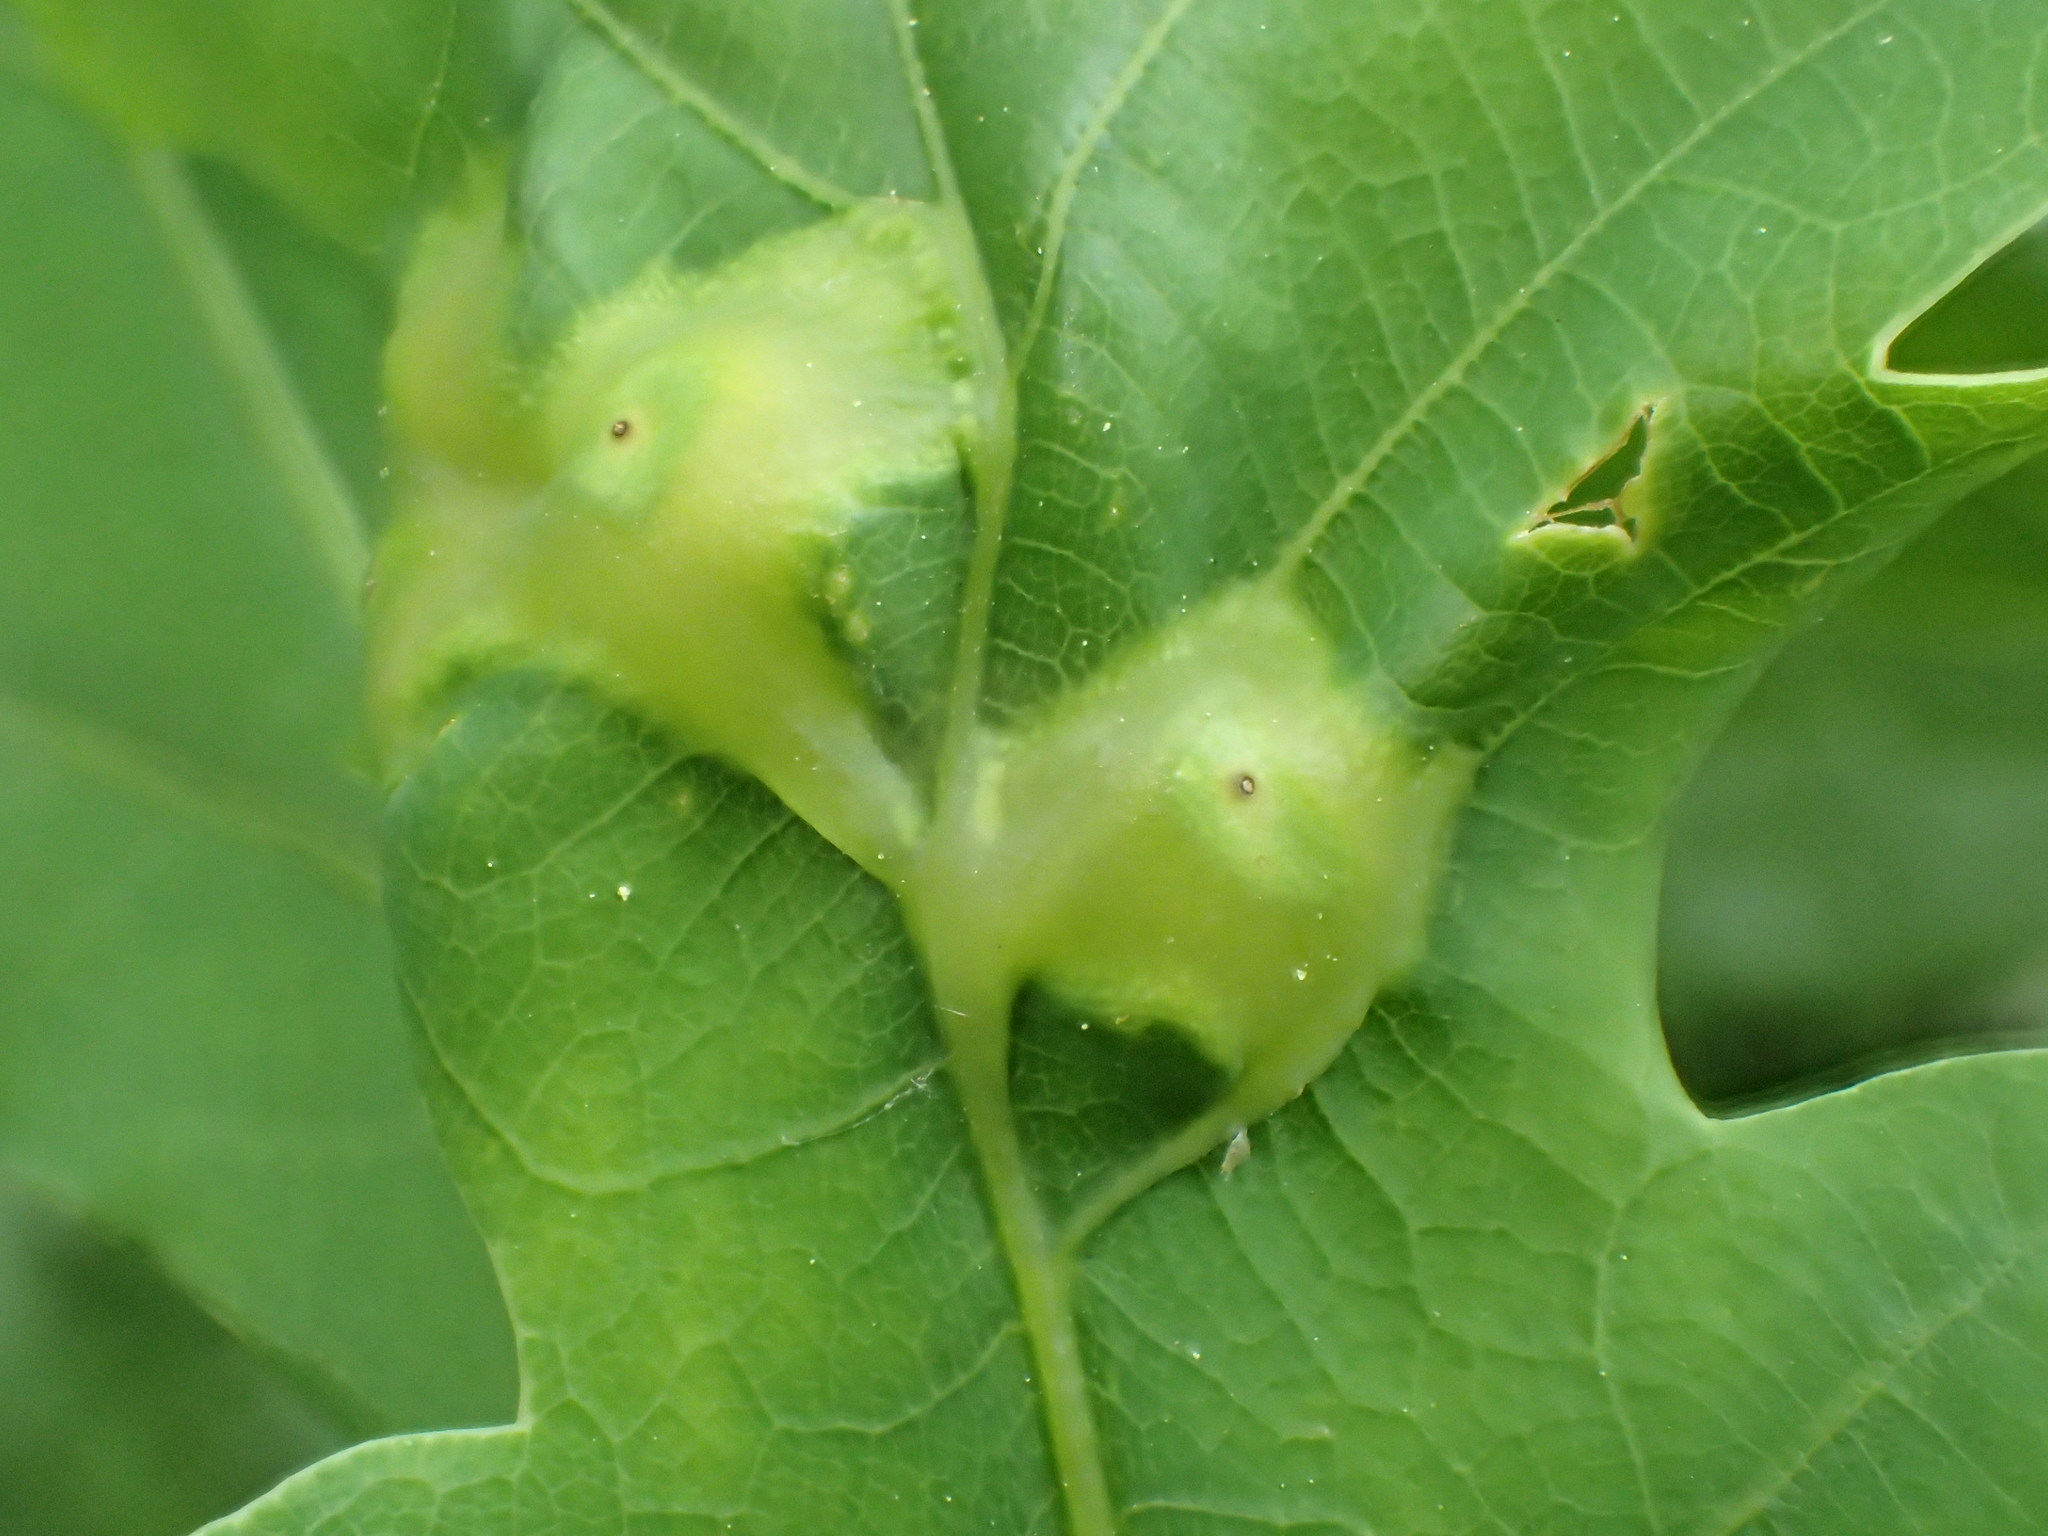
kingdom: Animalia
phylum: Arthropoda
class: Insecta
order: Hymenoptera
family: Cynipidae
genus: Andricus
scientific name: Andricus curvator
